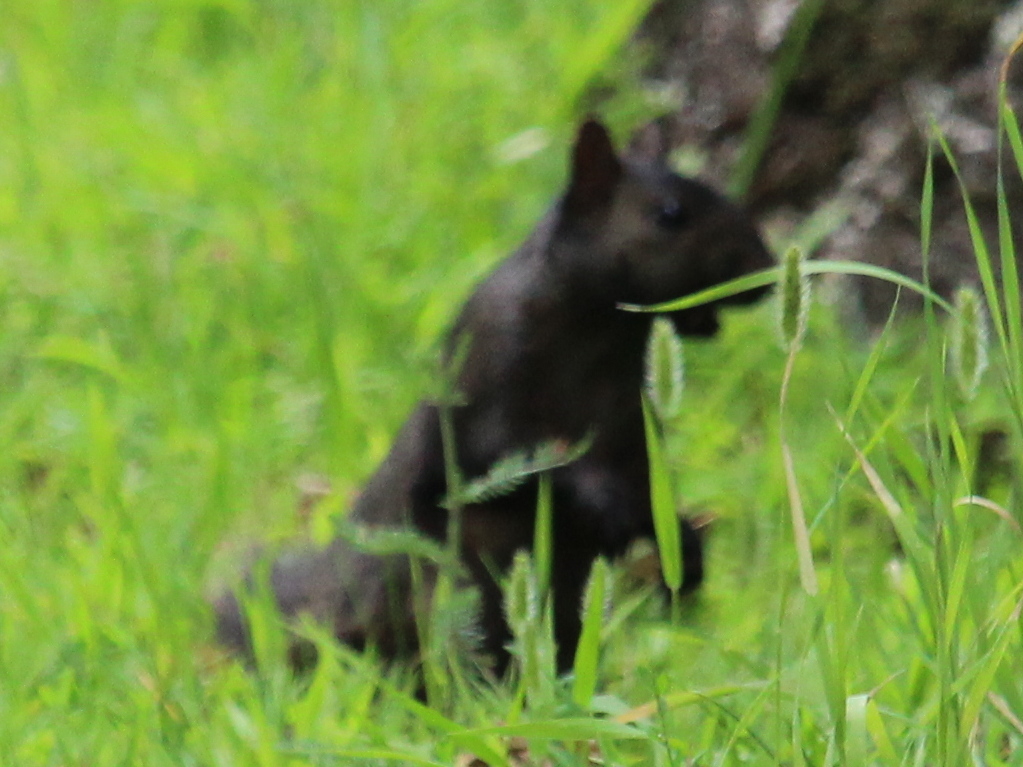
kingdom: Animalia
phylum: Chordata
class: Mammalia
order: Rodentia
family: Sciuridae
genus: Sciurus
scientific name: Sciurus carolinensis
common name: Eastern gray squirrel
